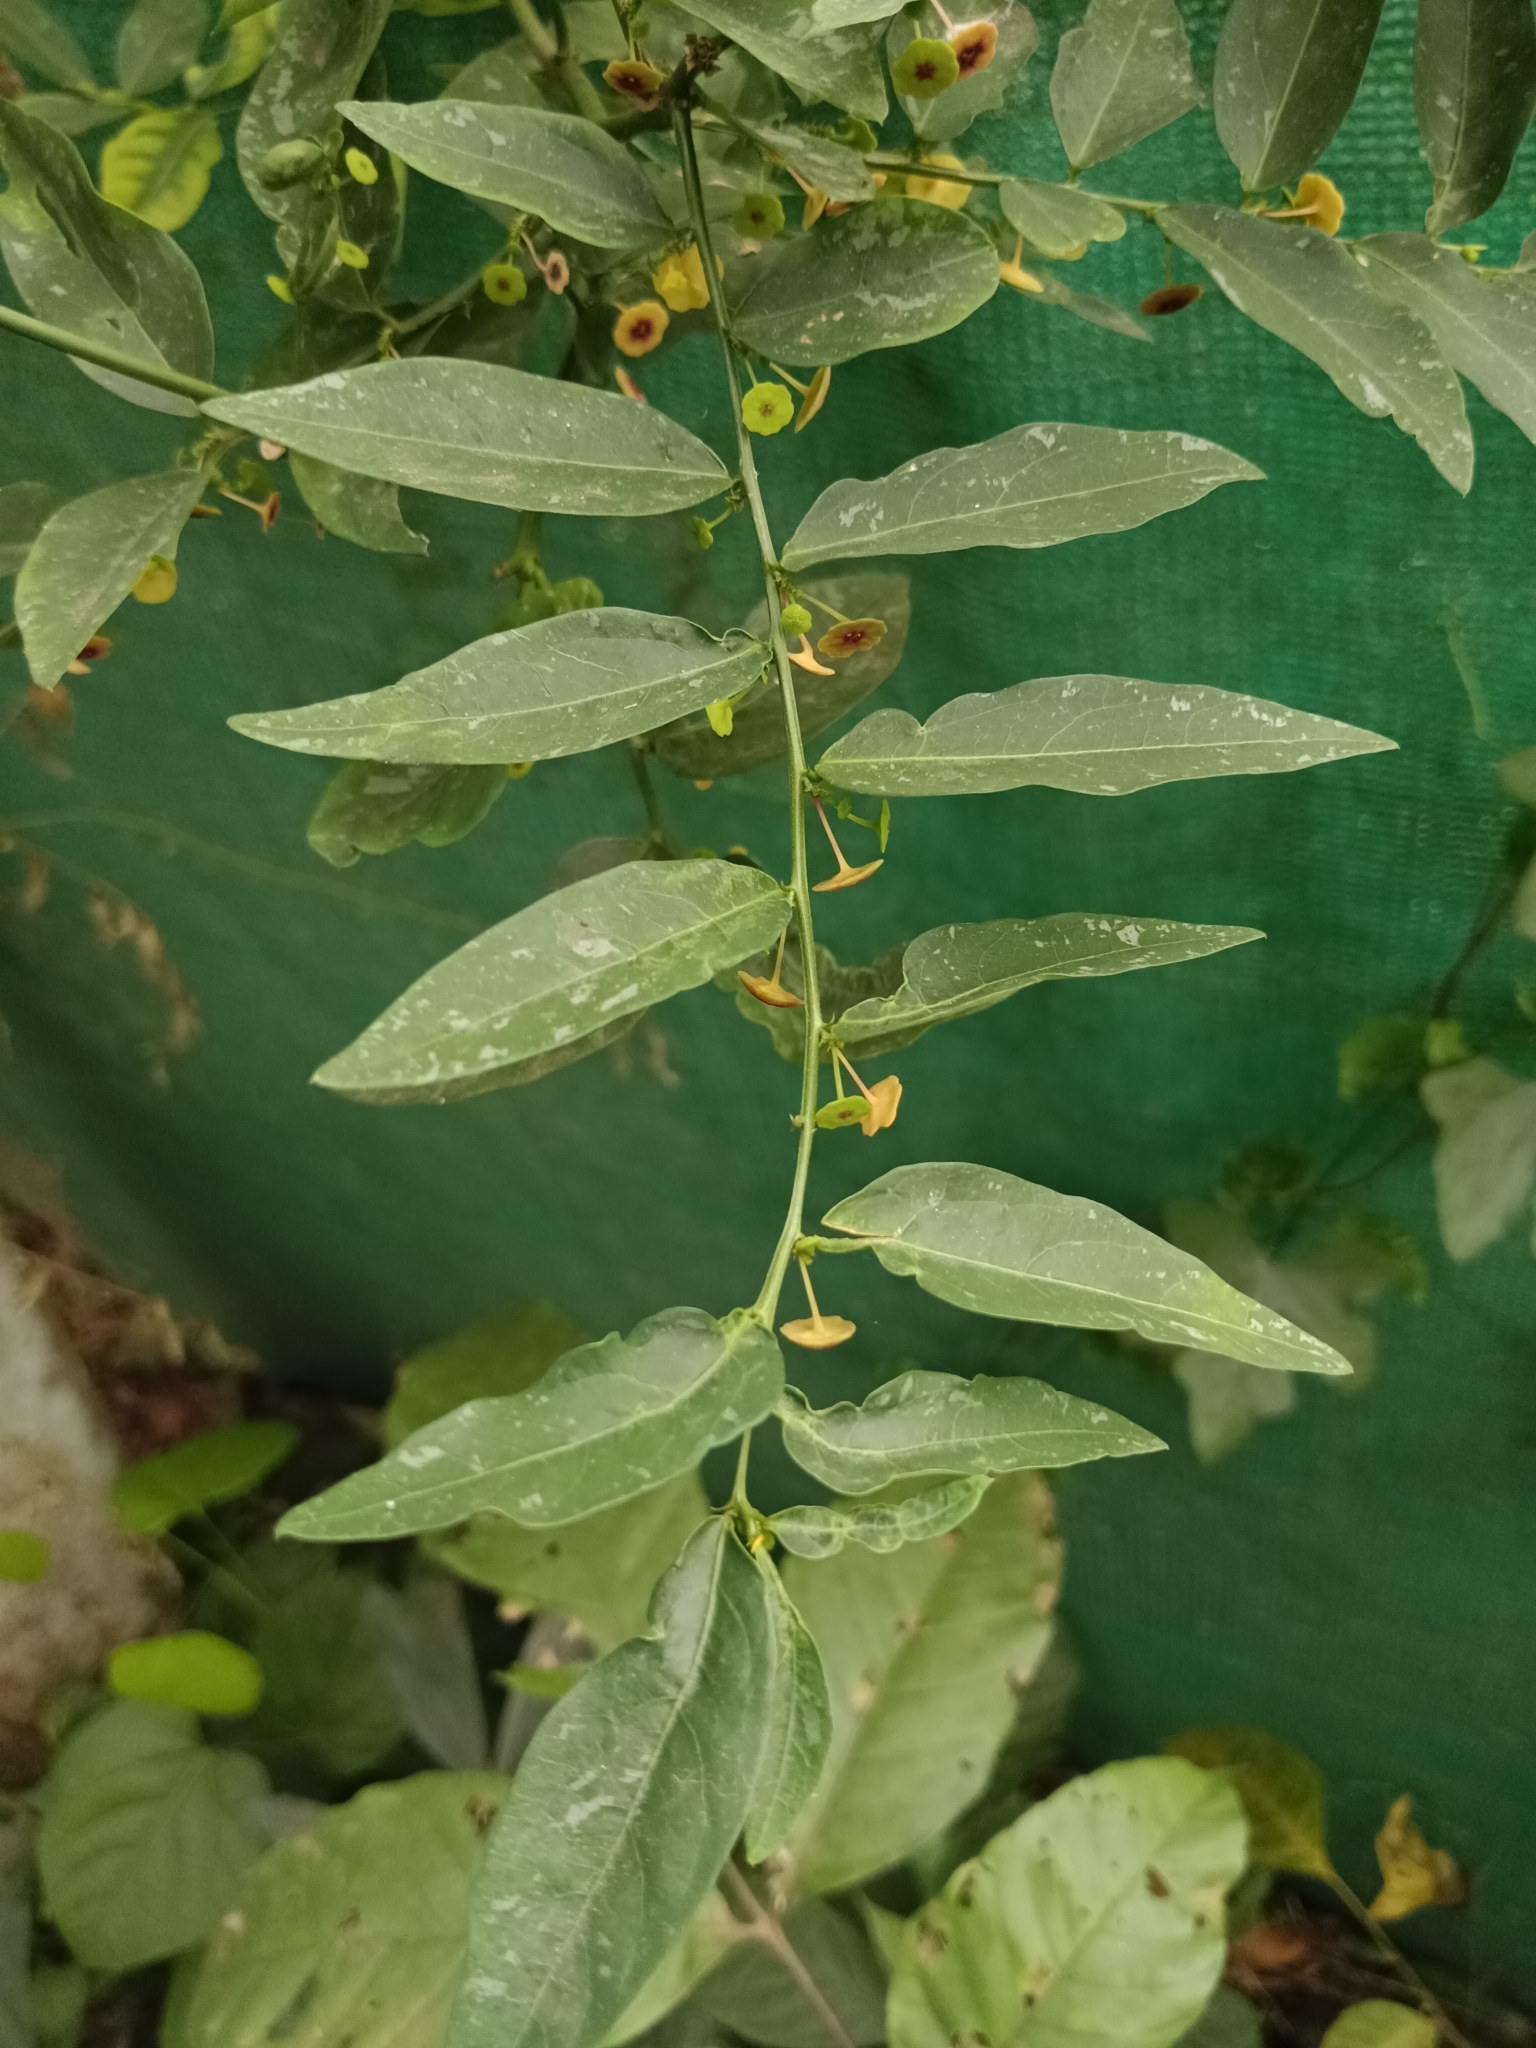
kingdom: Plantae
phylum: Tracheophyta
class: Magnoliopsida
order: Malpighiales
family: Phyllanthaceae
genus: Breynia
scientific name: Breynia androgyna
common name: Star gooseberry
